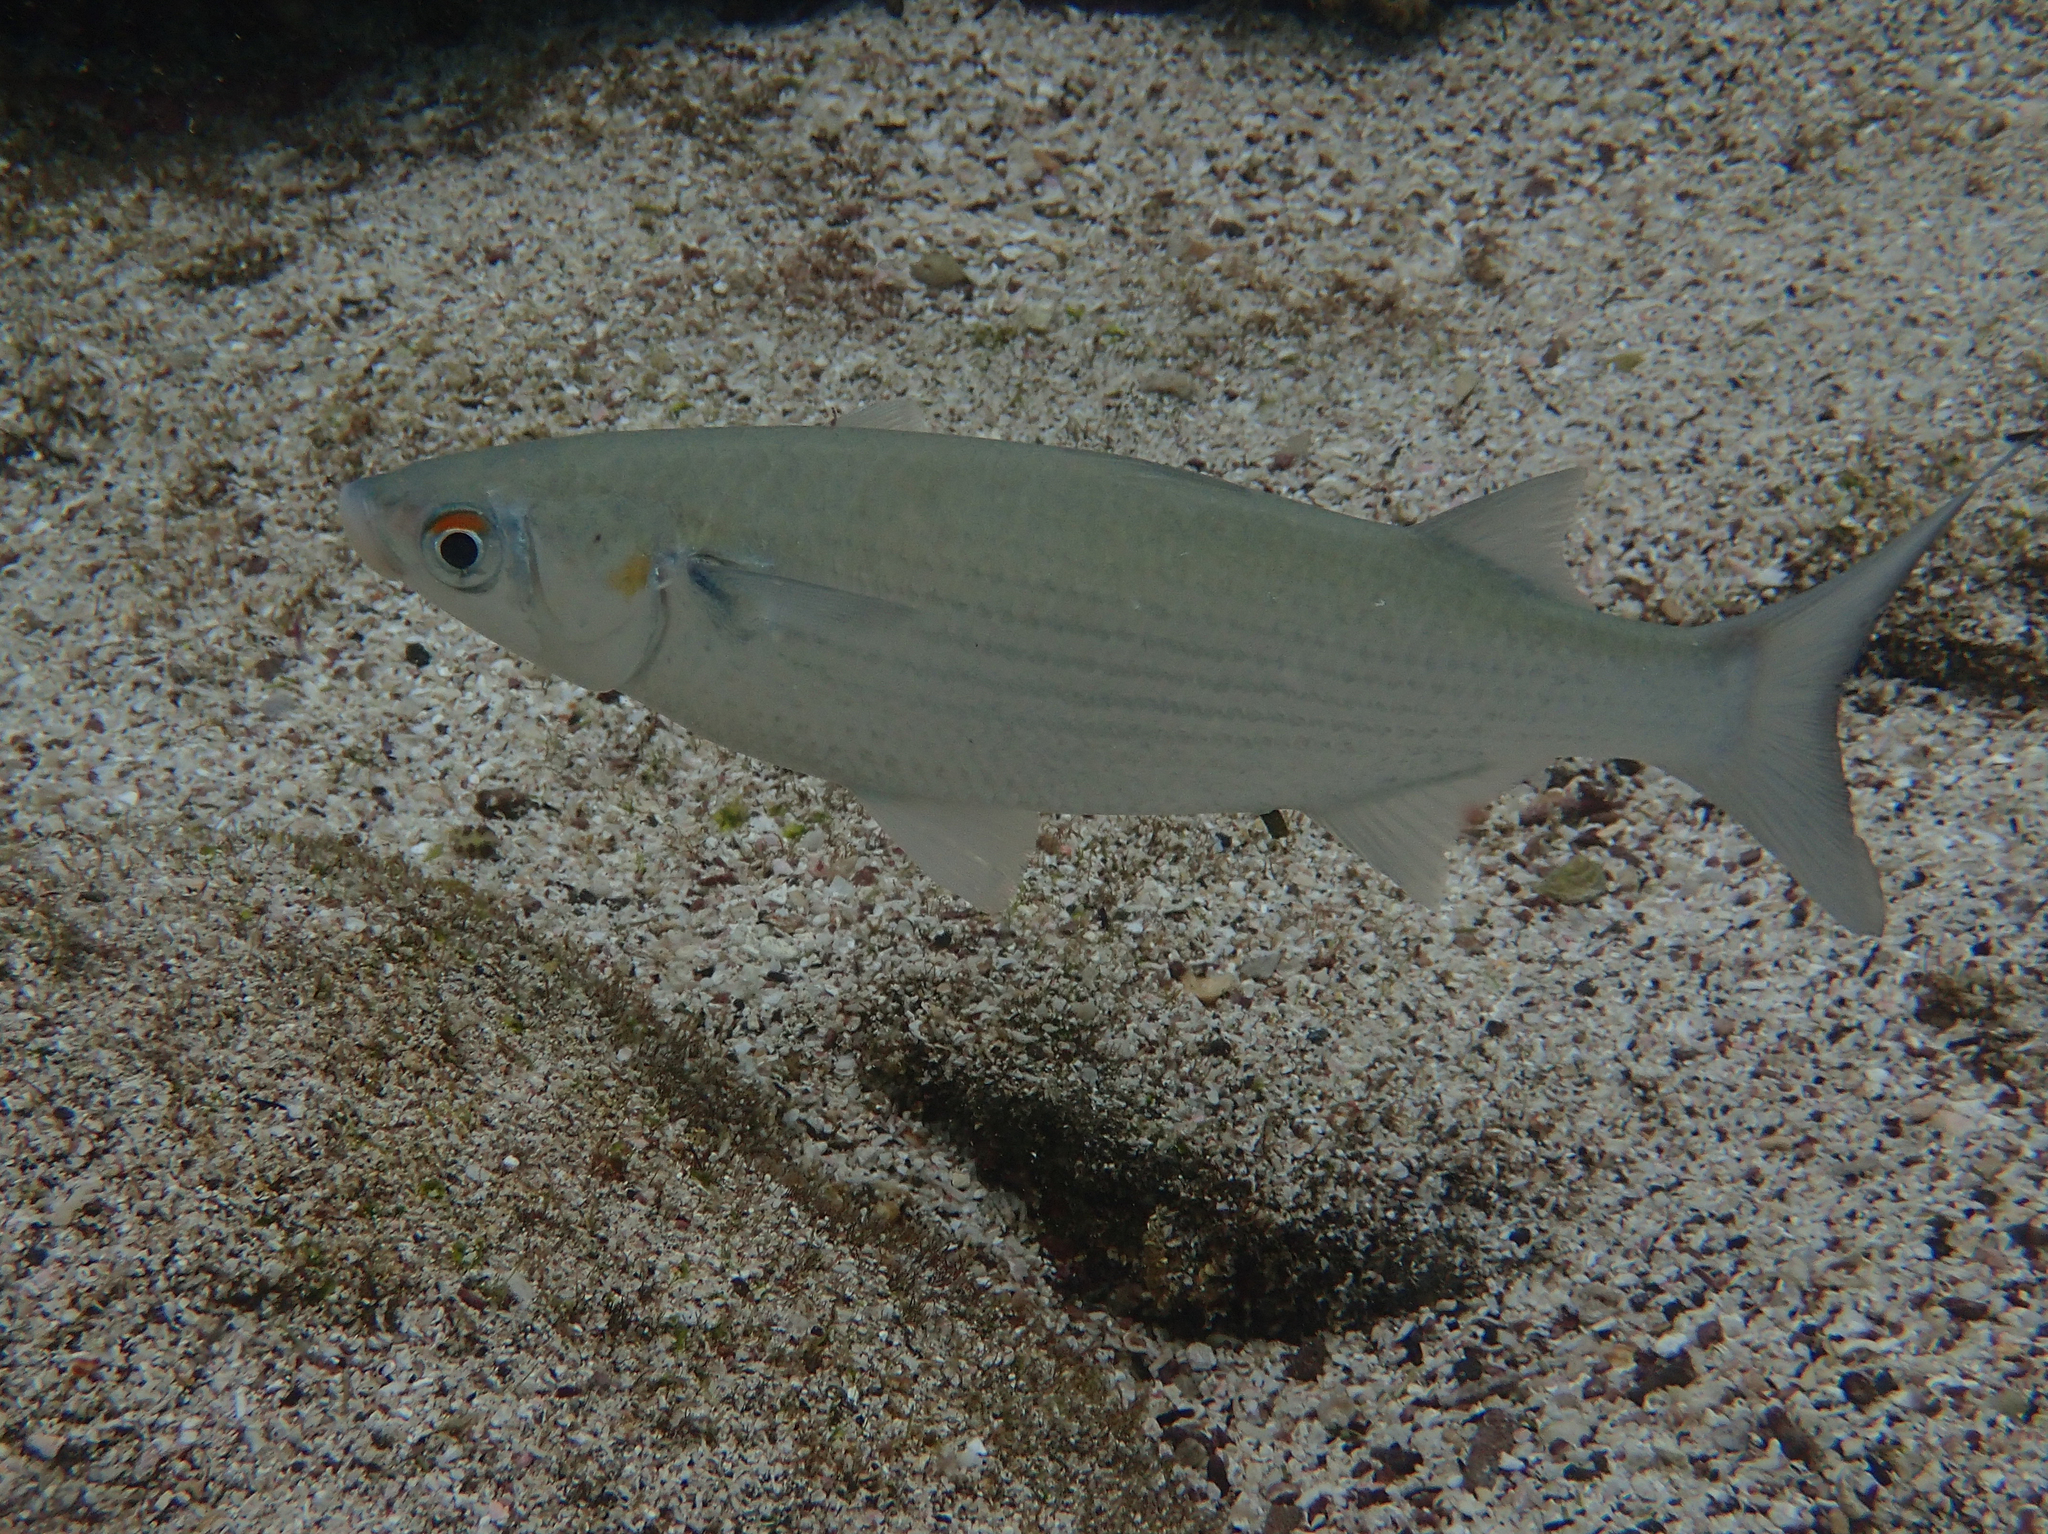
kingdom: Animalia
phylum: Chordata
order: Mugiliformes
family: Mugilidae
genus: Mugil
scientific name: Mugil cephalus
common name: Grey mullet
